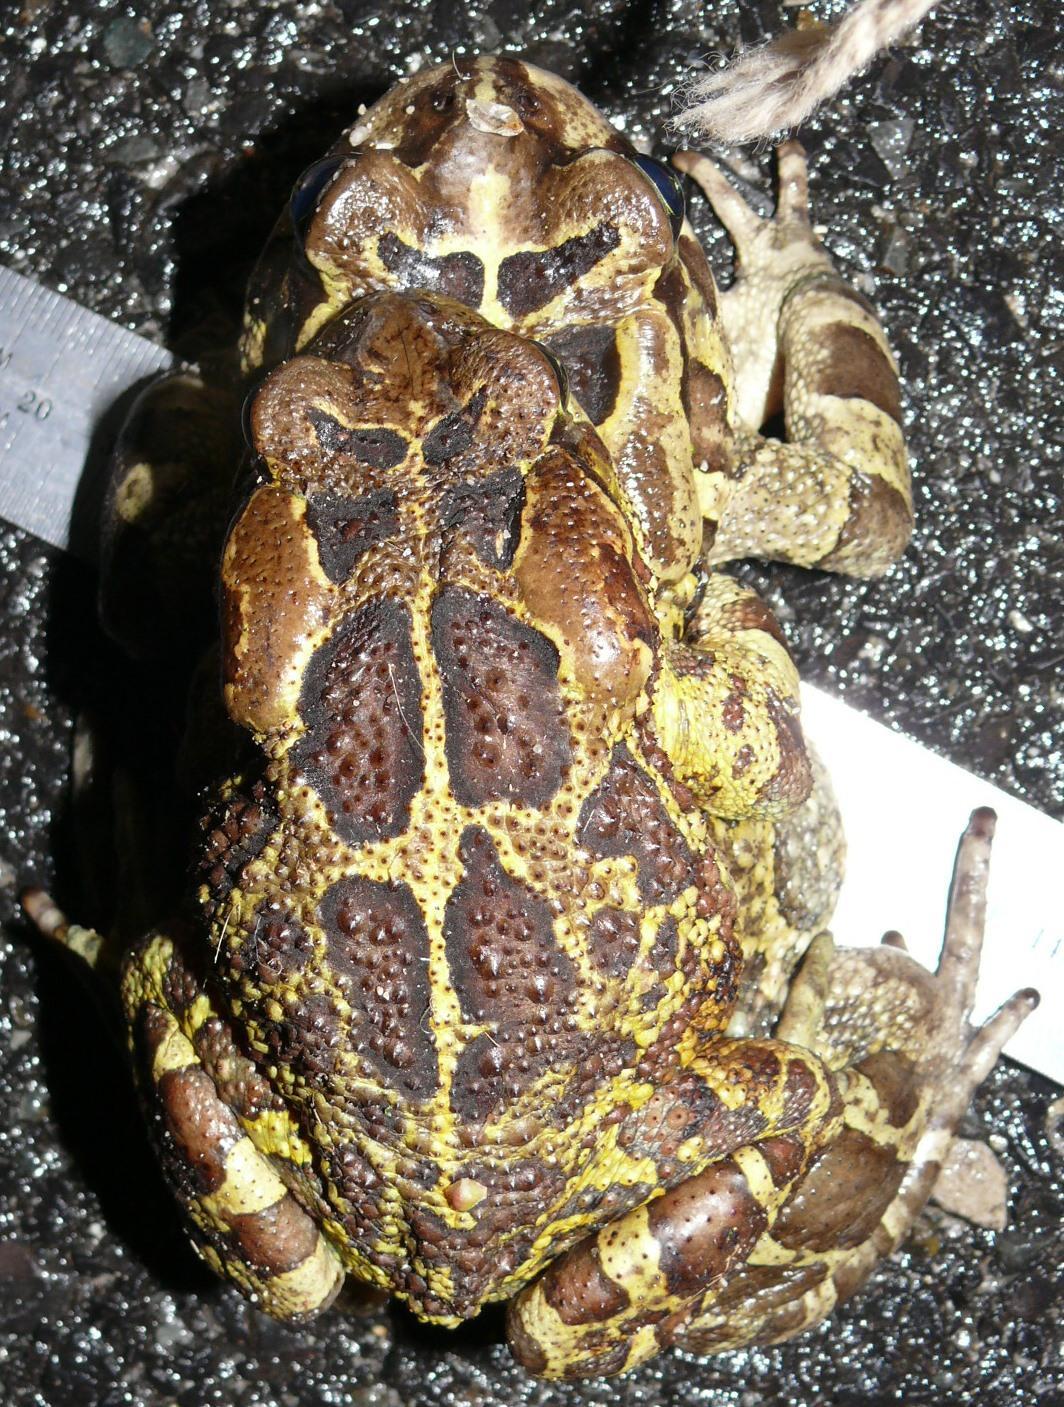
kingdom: Animalia
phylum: Chordata
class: Amphibia
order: Anura
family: Bufonidae
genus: Sclerophrys
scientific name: Sclerophrys pantherina
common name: Panther toad
